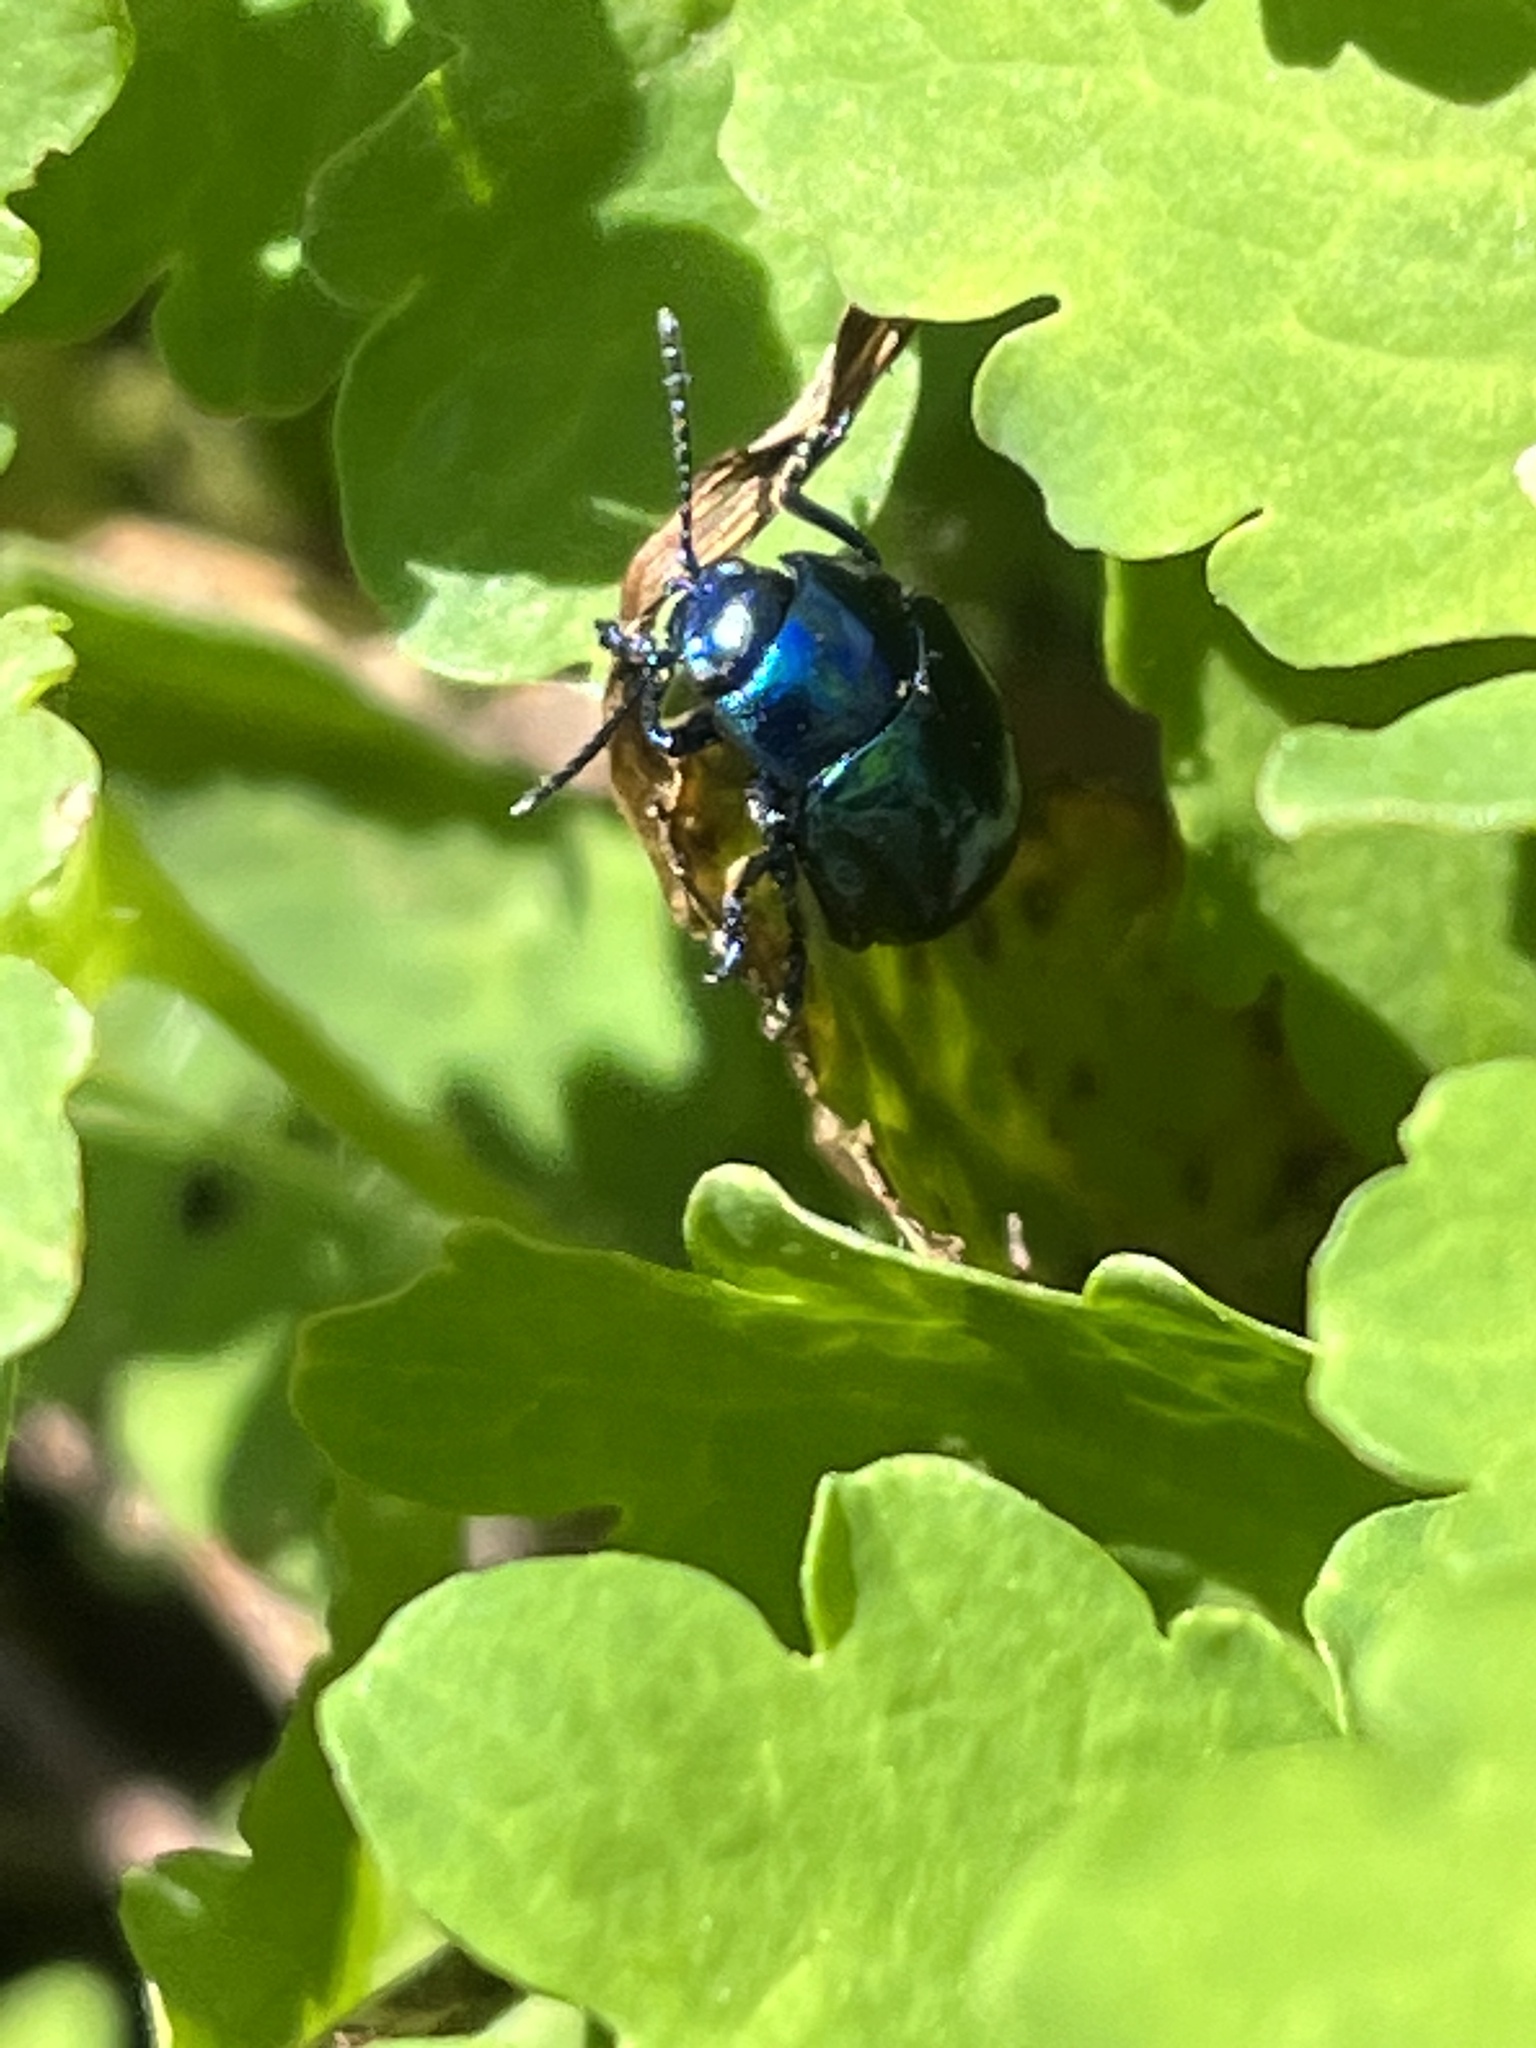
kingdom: Animalia
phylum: Arthropoda
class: Insecta
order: Coleoptera
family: Chrysomelidae
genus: Chrysolina
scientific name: Chrysolina coerulans
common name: Blue mint beetle
